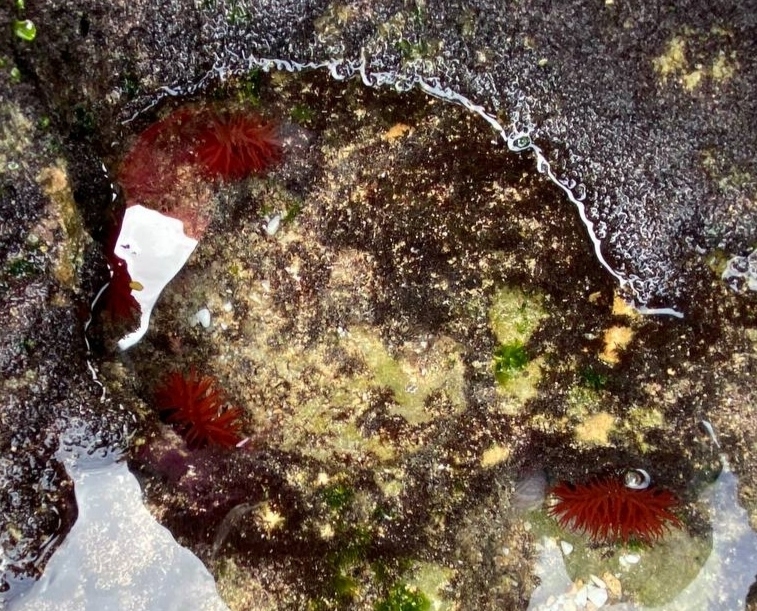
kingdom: Animalia
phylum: Cnidaria
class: Anthozoa
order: Actiniaria
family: Actiniidae
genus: Actinia
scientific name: Actinia tenebrosa
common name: Waratah anemone
